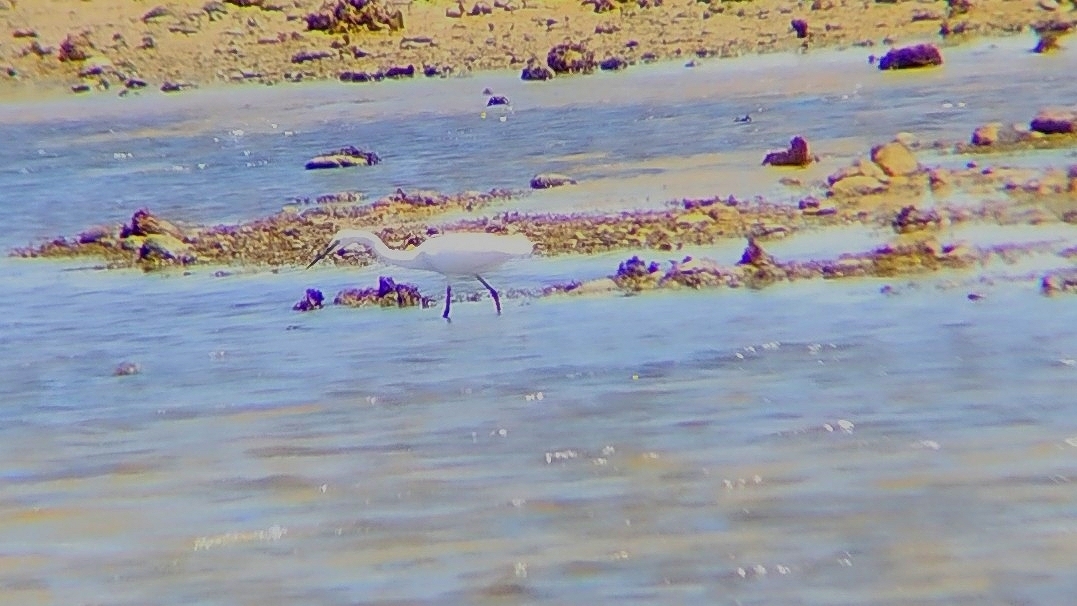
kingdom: Animalia
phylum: Chordata
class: Aves
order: Pelecaniformes
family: Ardeidae
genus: Egretta
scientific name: Egretta garzetta
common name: Little egret
